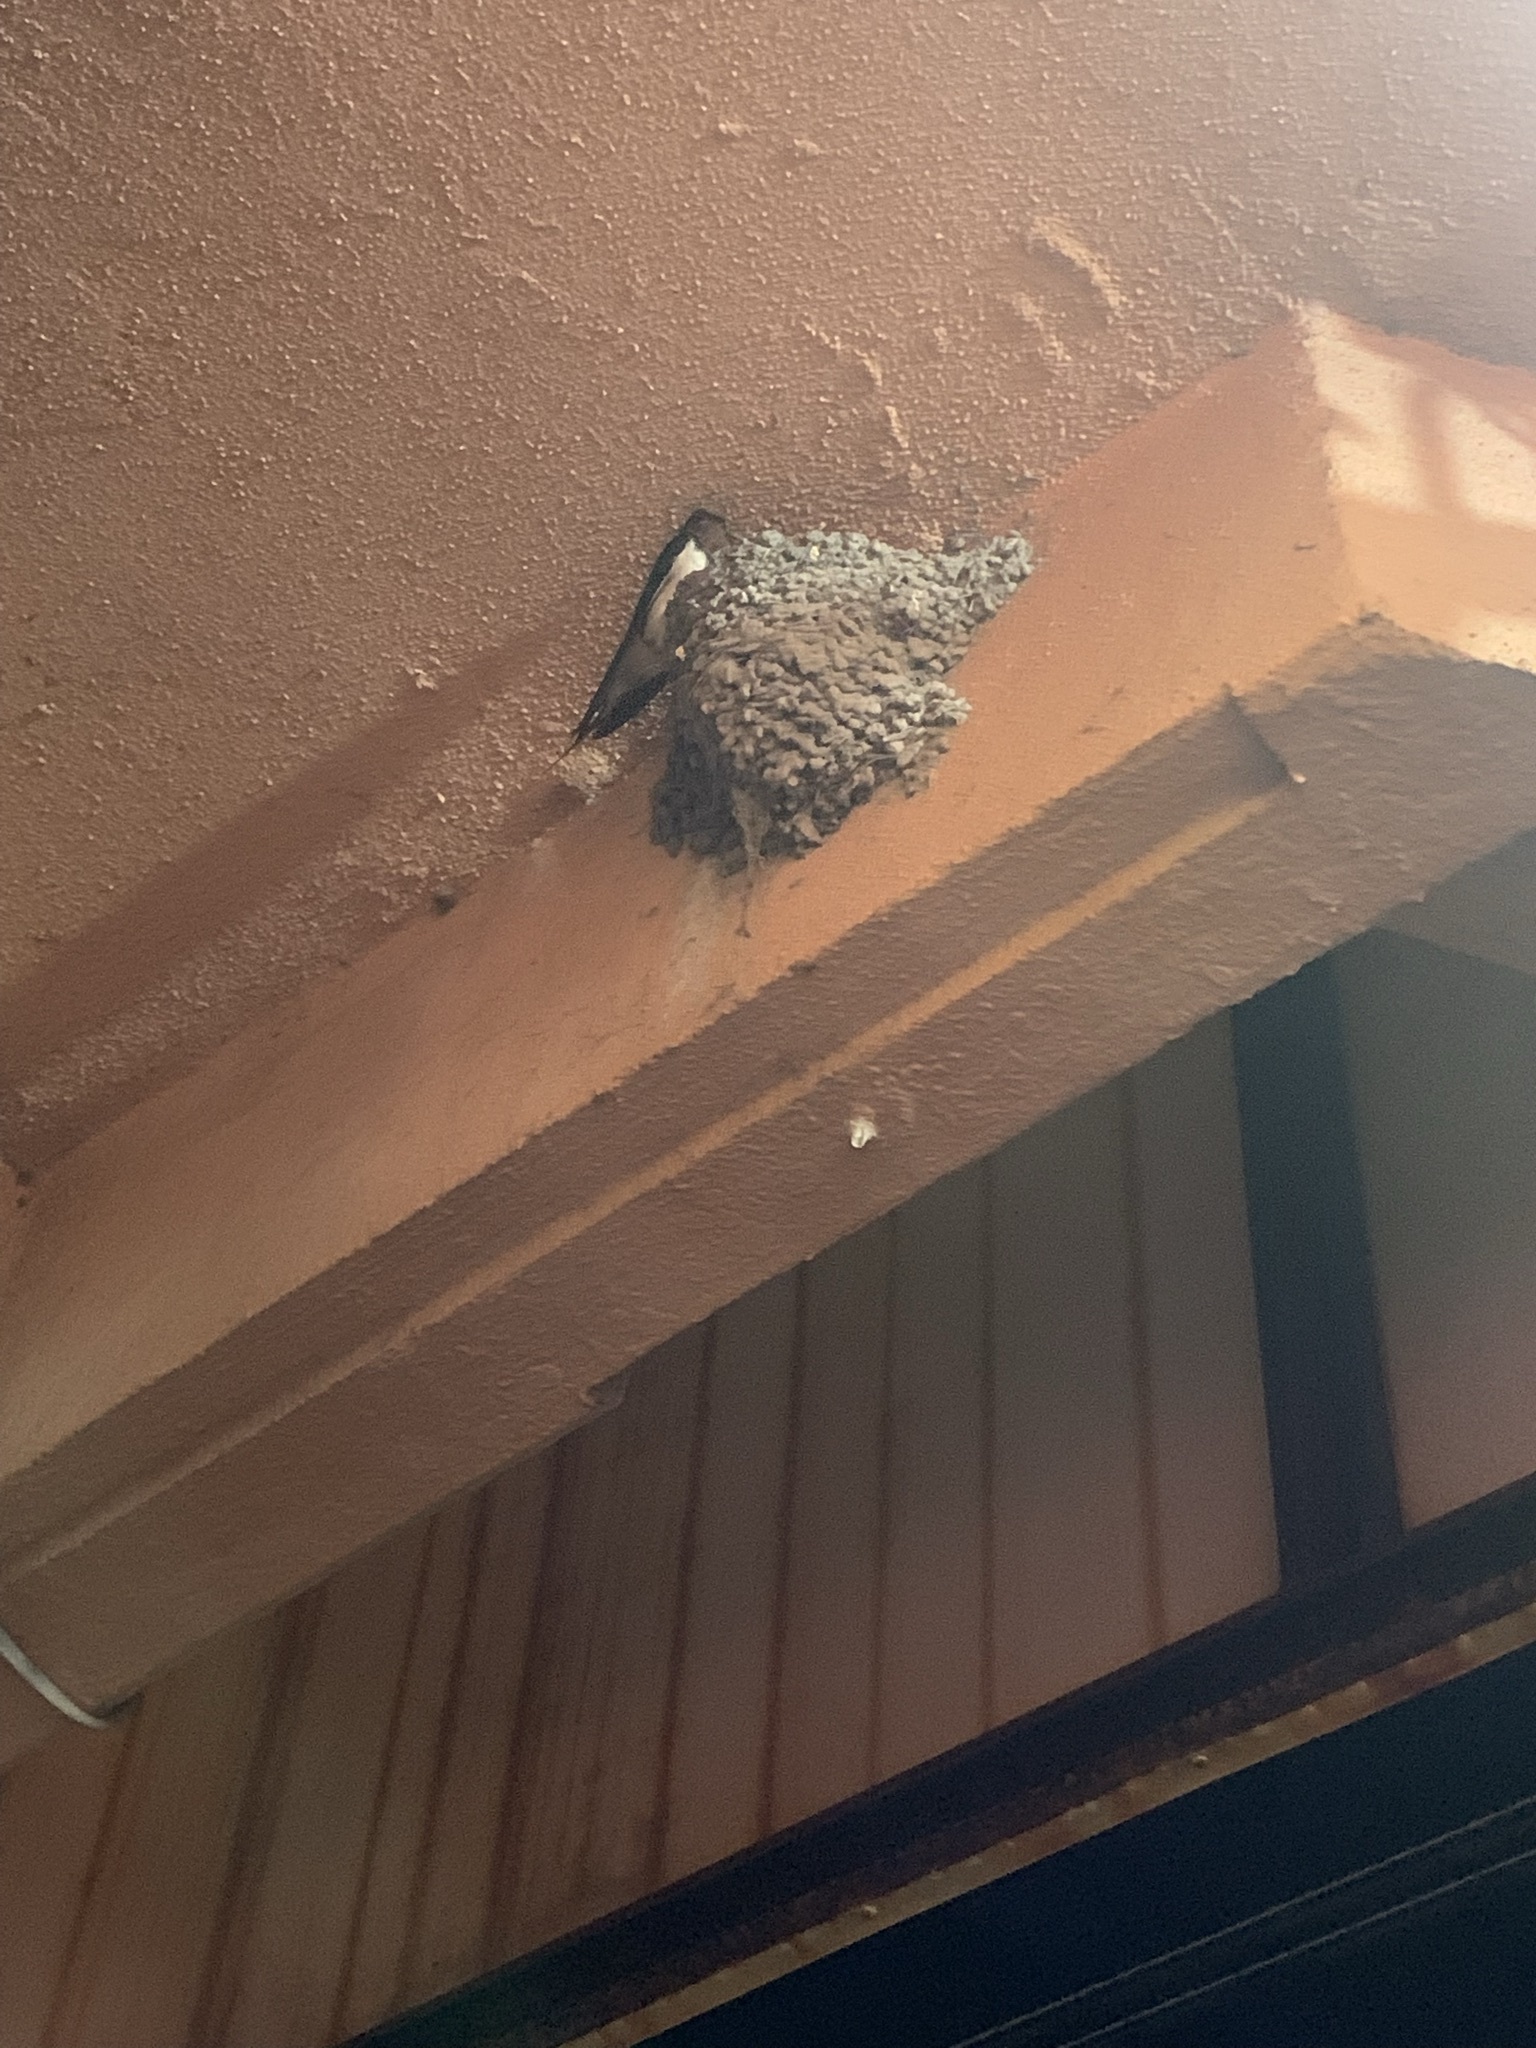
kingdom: Animalia
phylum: Chordata
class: Aves
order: Passeriformes
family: Hirundinidae
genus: Hirundo
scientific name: Hirundo rustica
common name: Barn swallow
